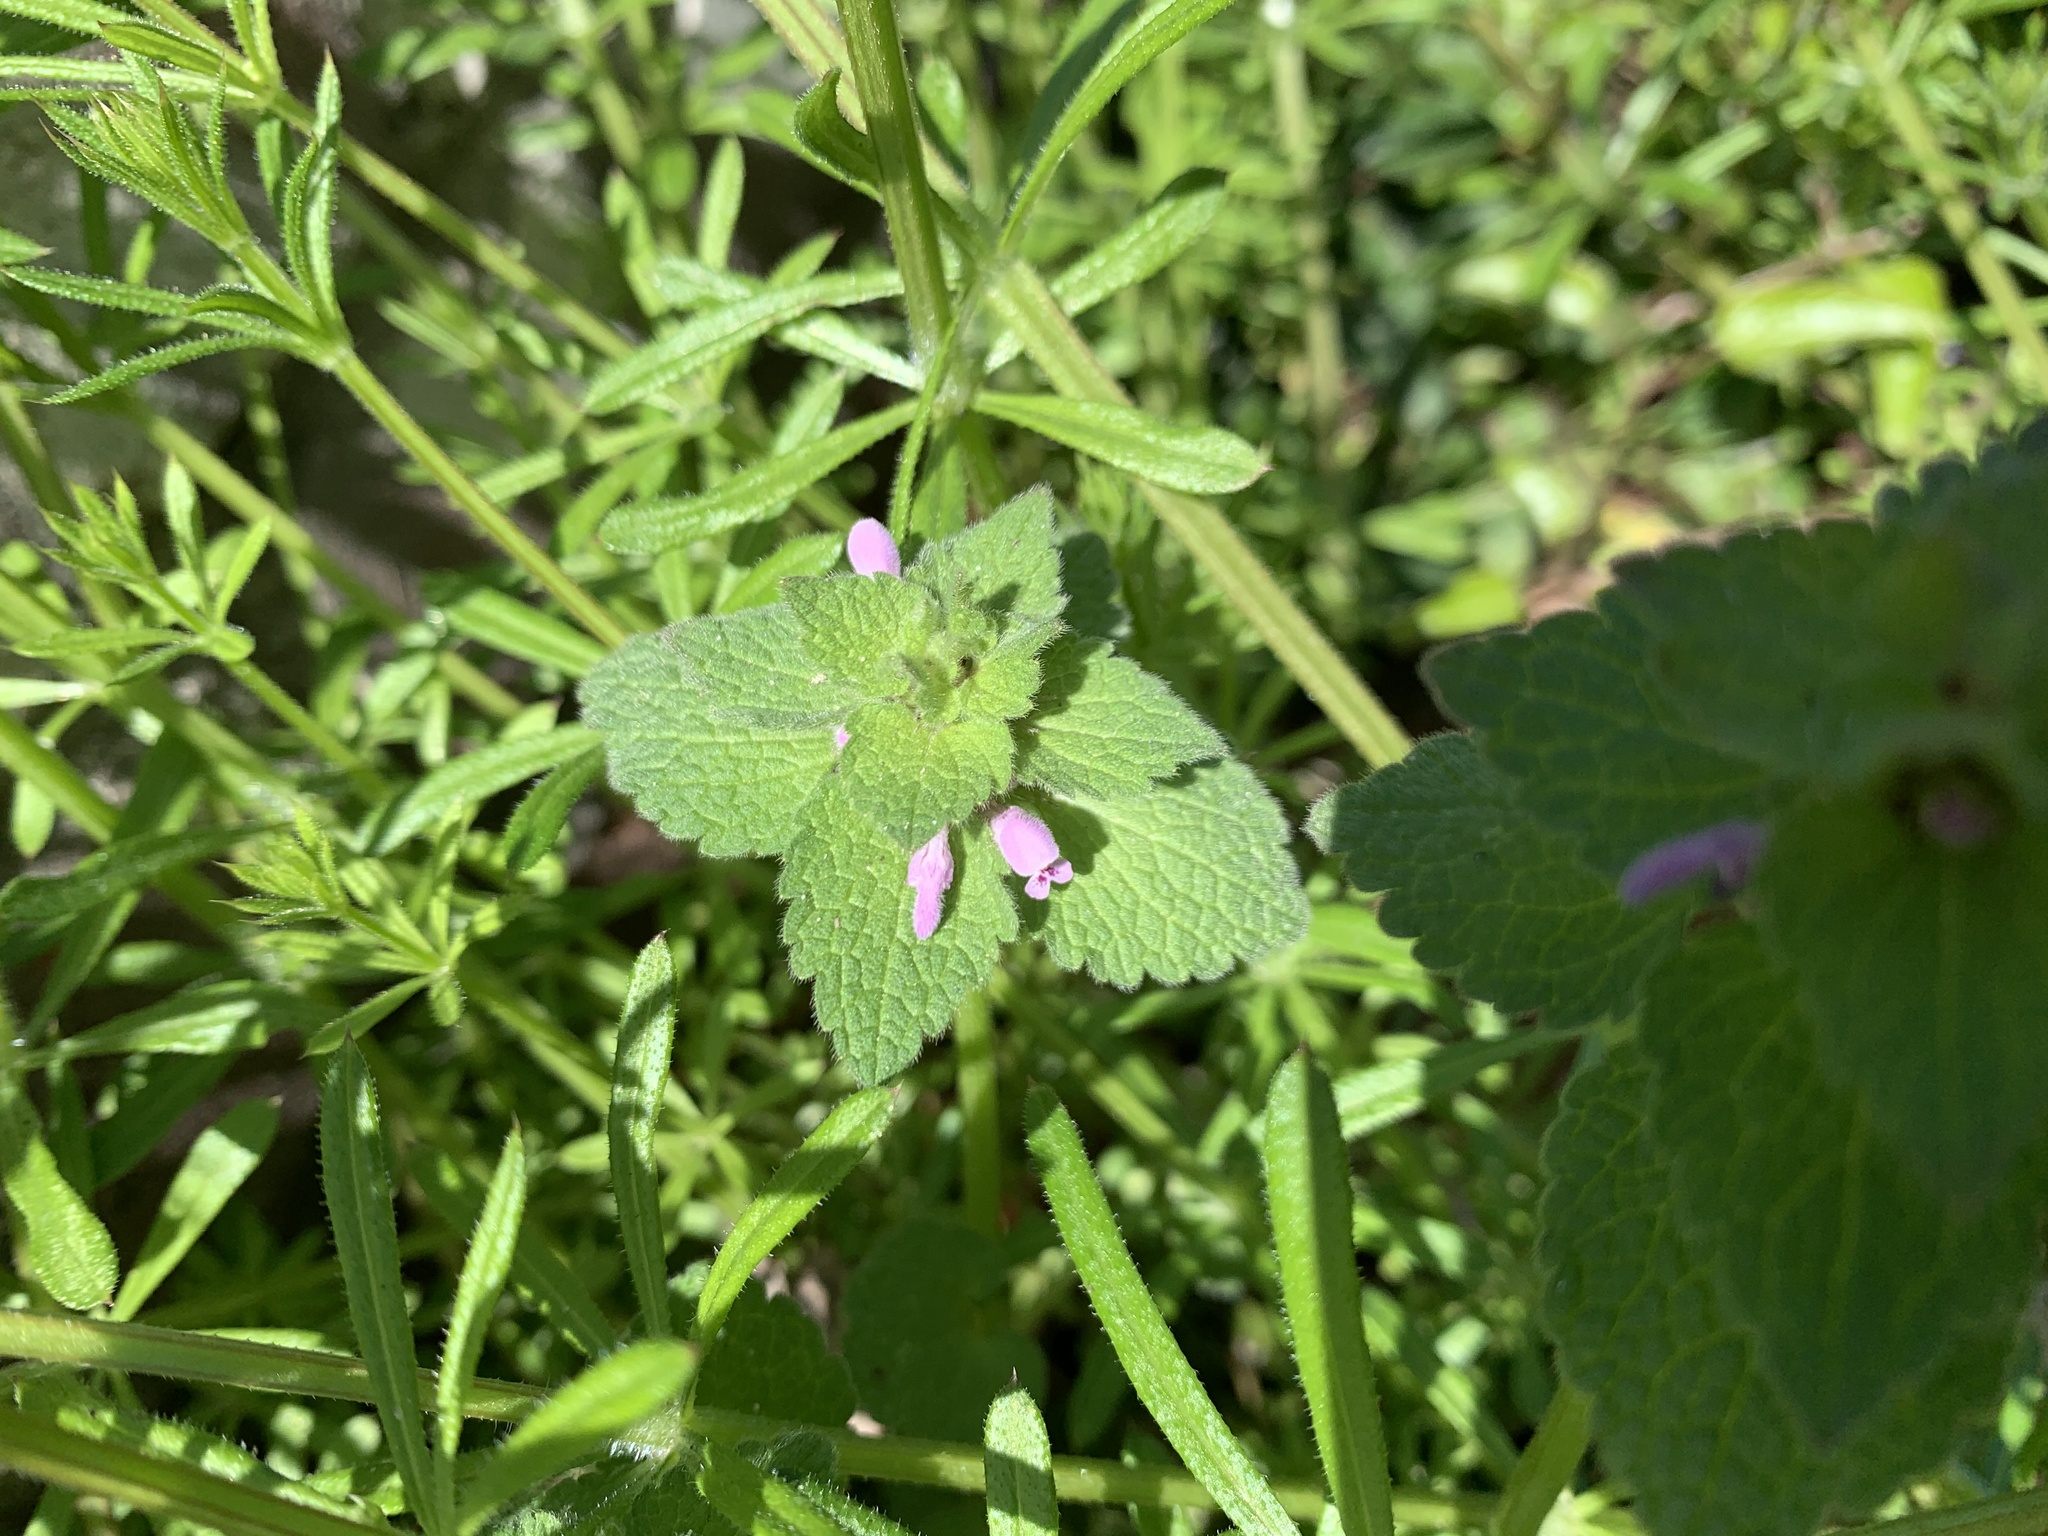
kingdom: Plantae
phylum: Tracheophyta
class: Magnoliopsida
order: Lamiales
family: Lamiaceae
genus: Lamium
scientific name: Lamium purpureum
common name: Red dead-nettle
